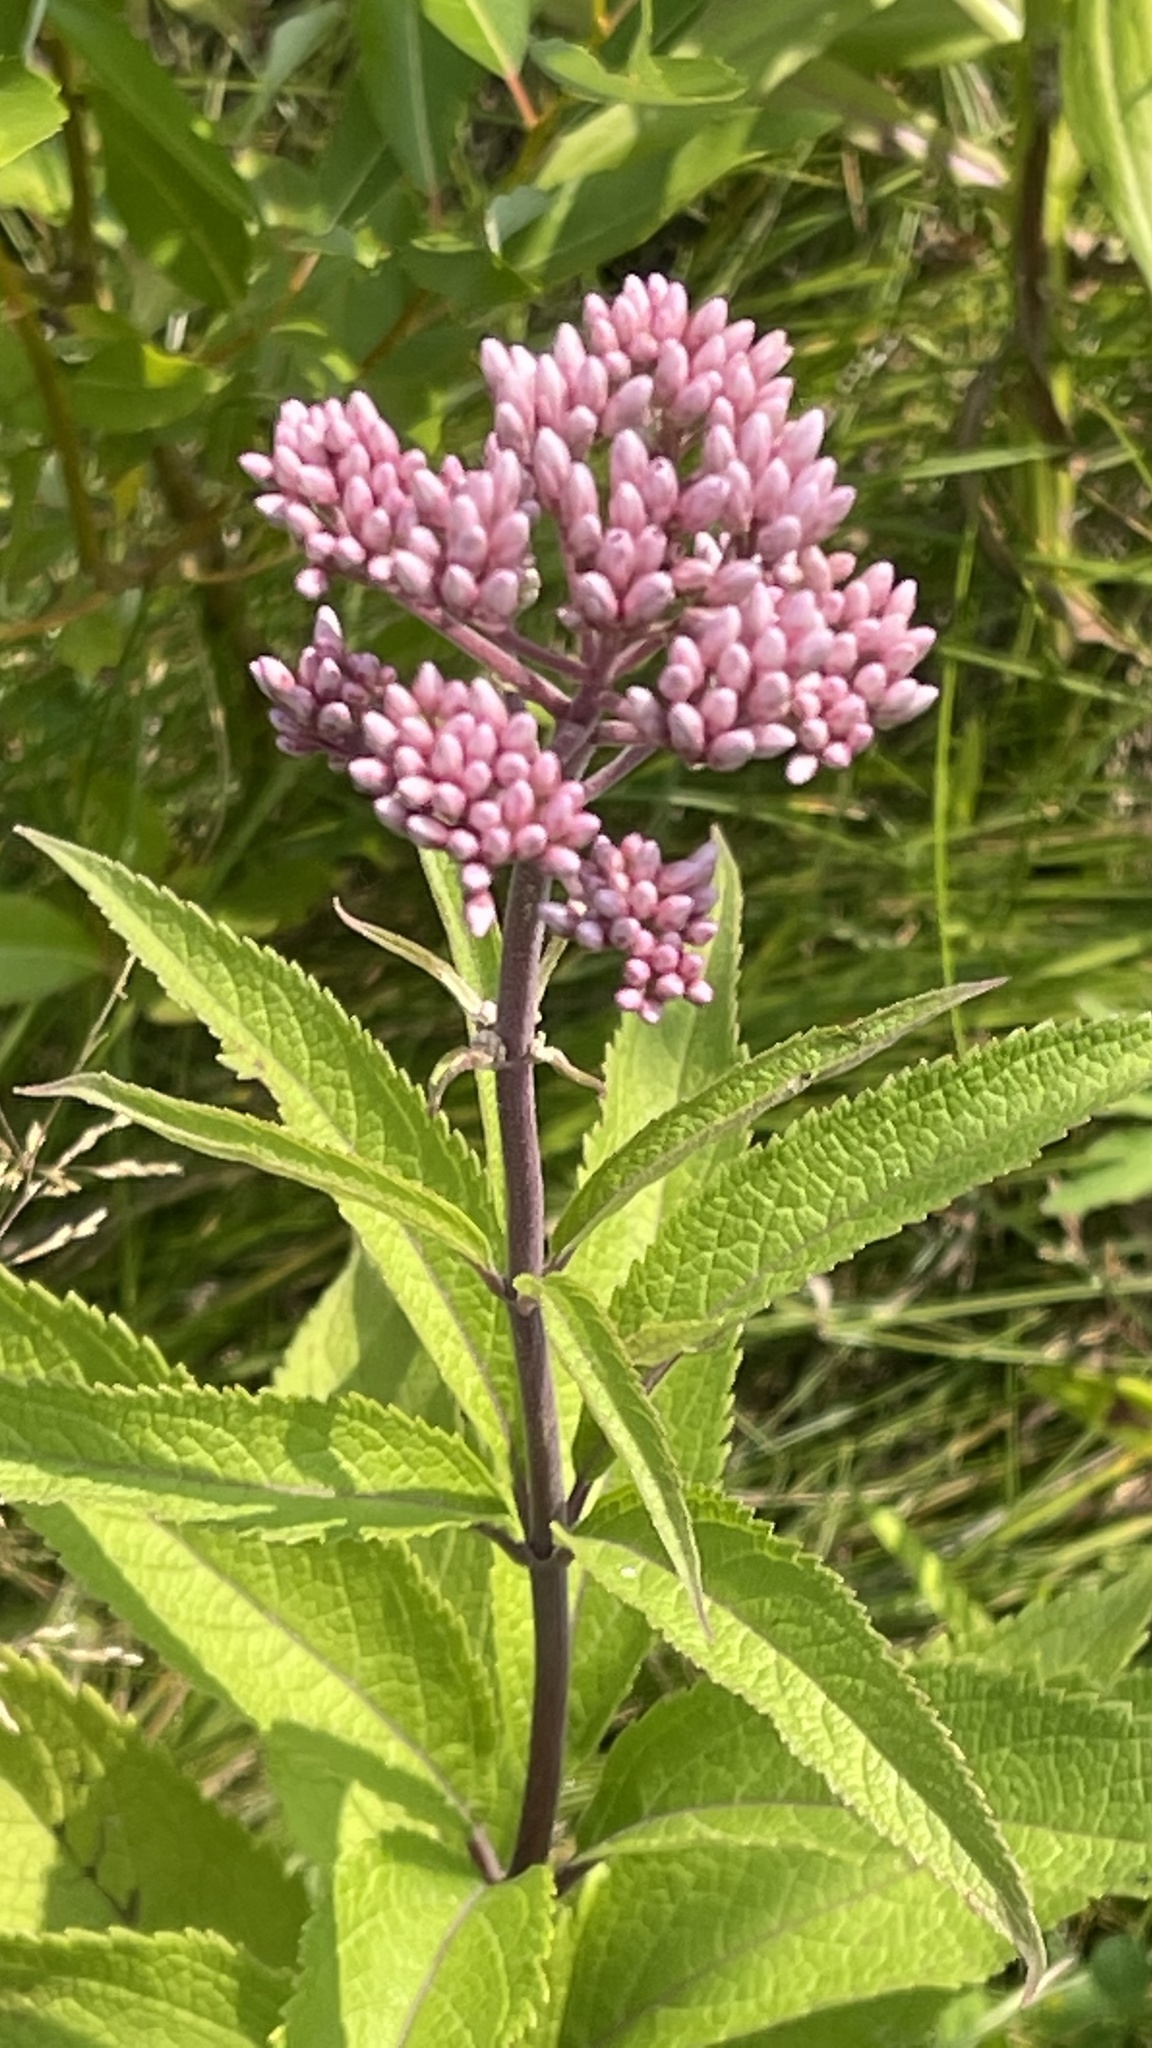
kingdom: Plantae
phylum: Tracheophyta
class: Magnoliopsida
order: Asterales
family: Asteraceae
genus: Eutrochium
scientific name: Eutrochium maculatum
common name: Spotted joe pye weed
